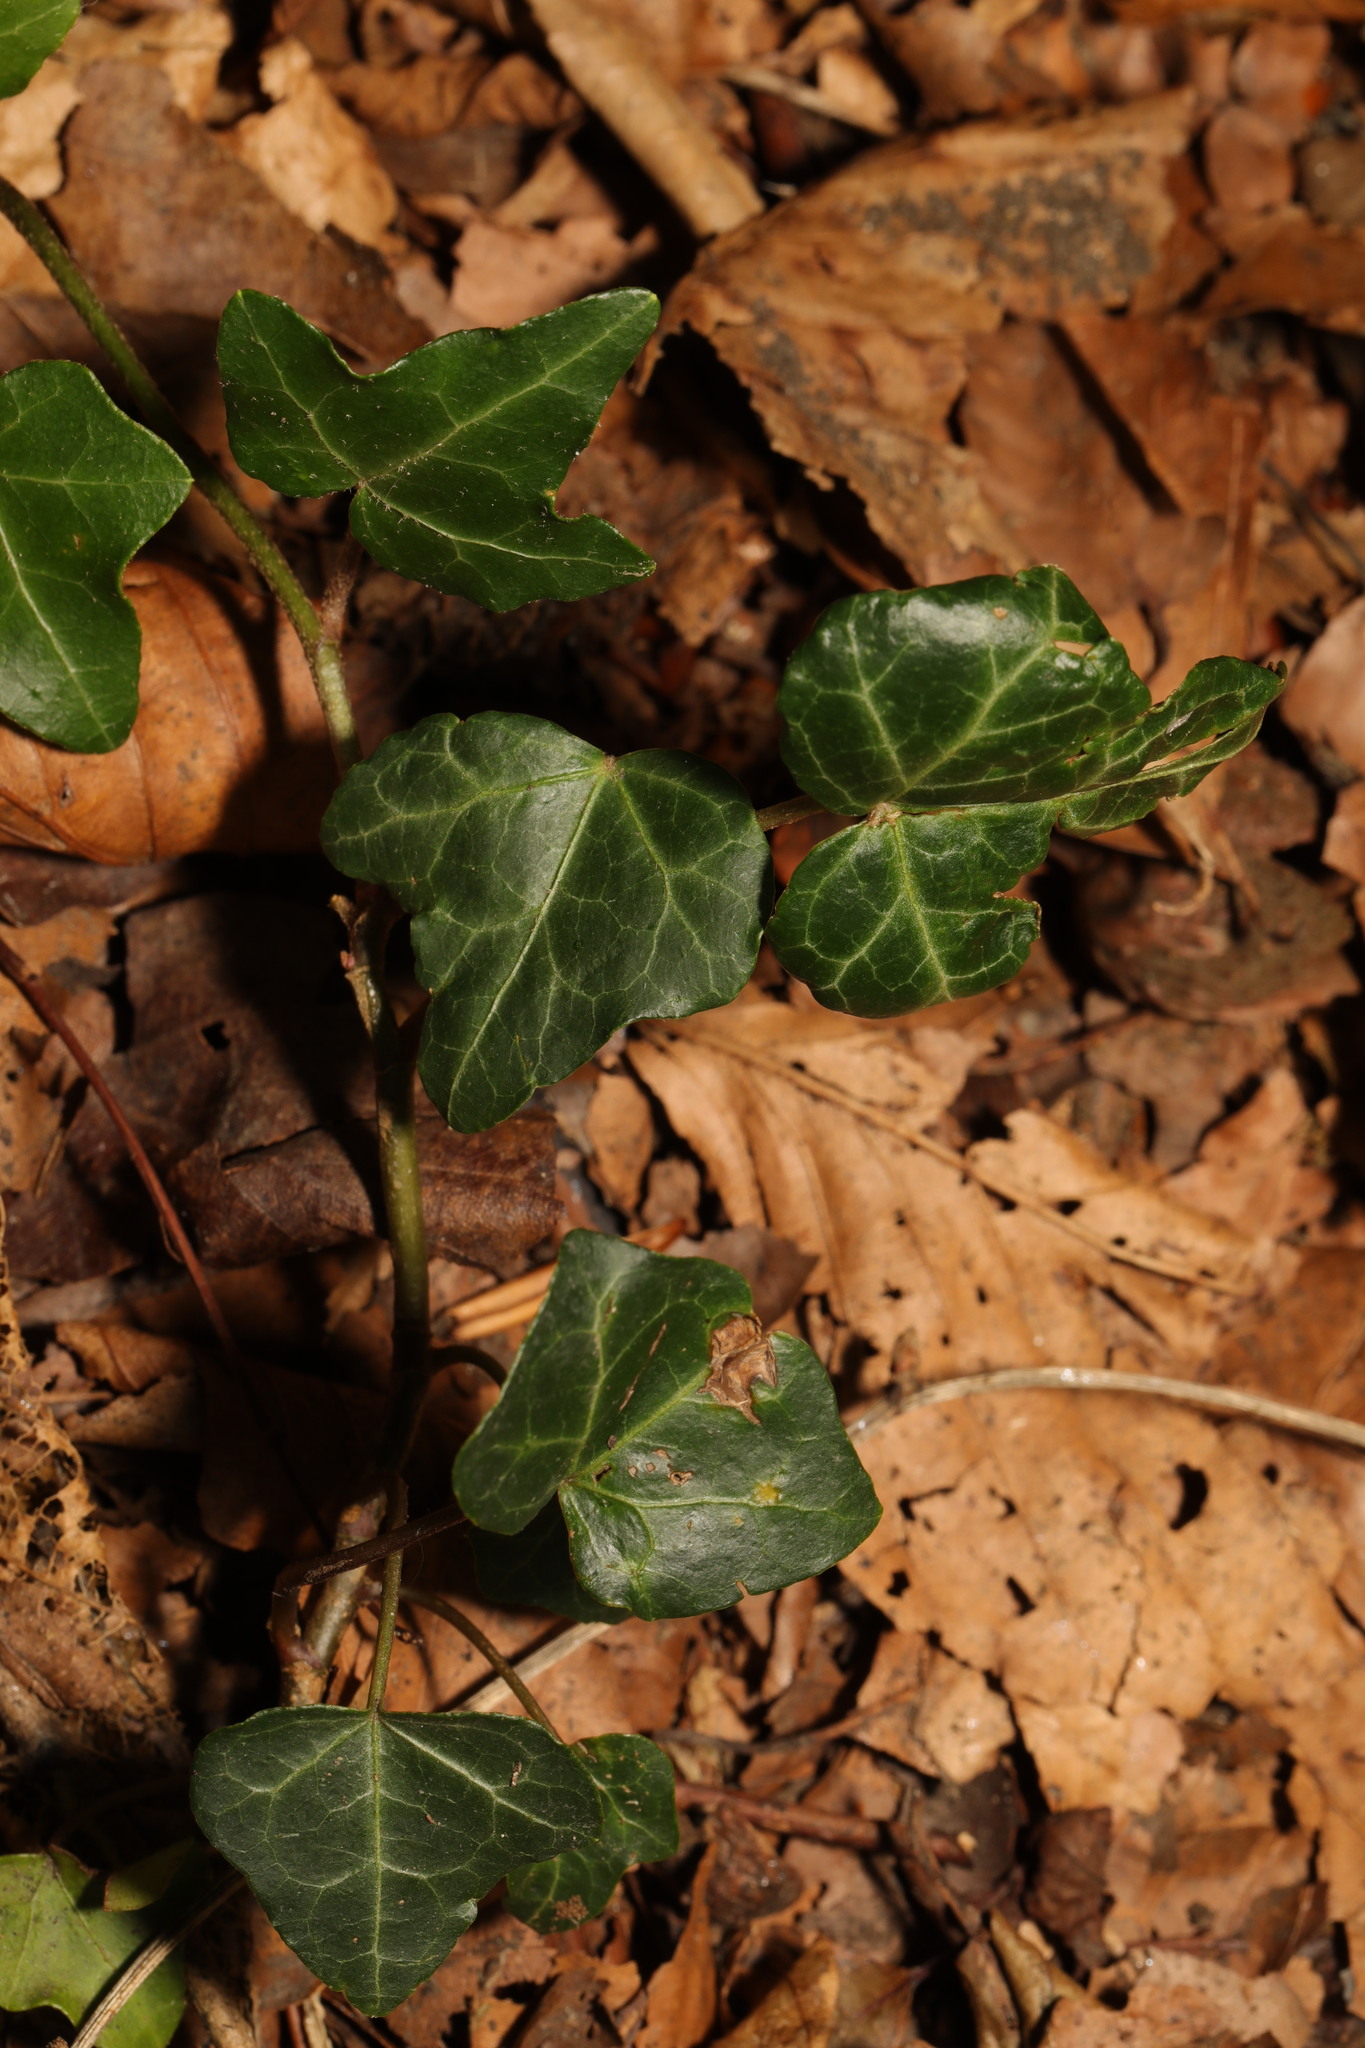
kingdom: Plantae
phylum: Tracheophyta
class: Magnoliopsida
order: Apiales
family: Araliaceae
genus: Hedera
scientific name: Hedera helix
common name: Ivy
